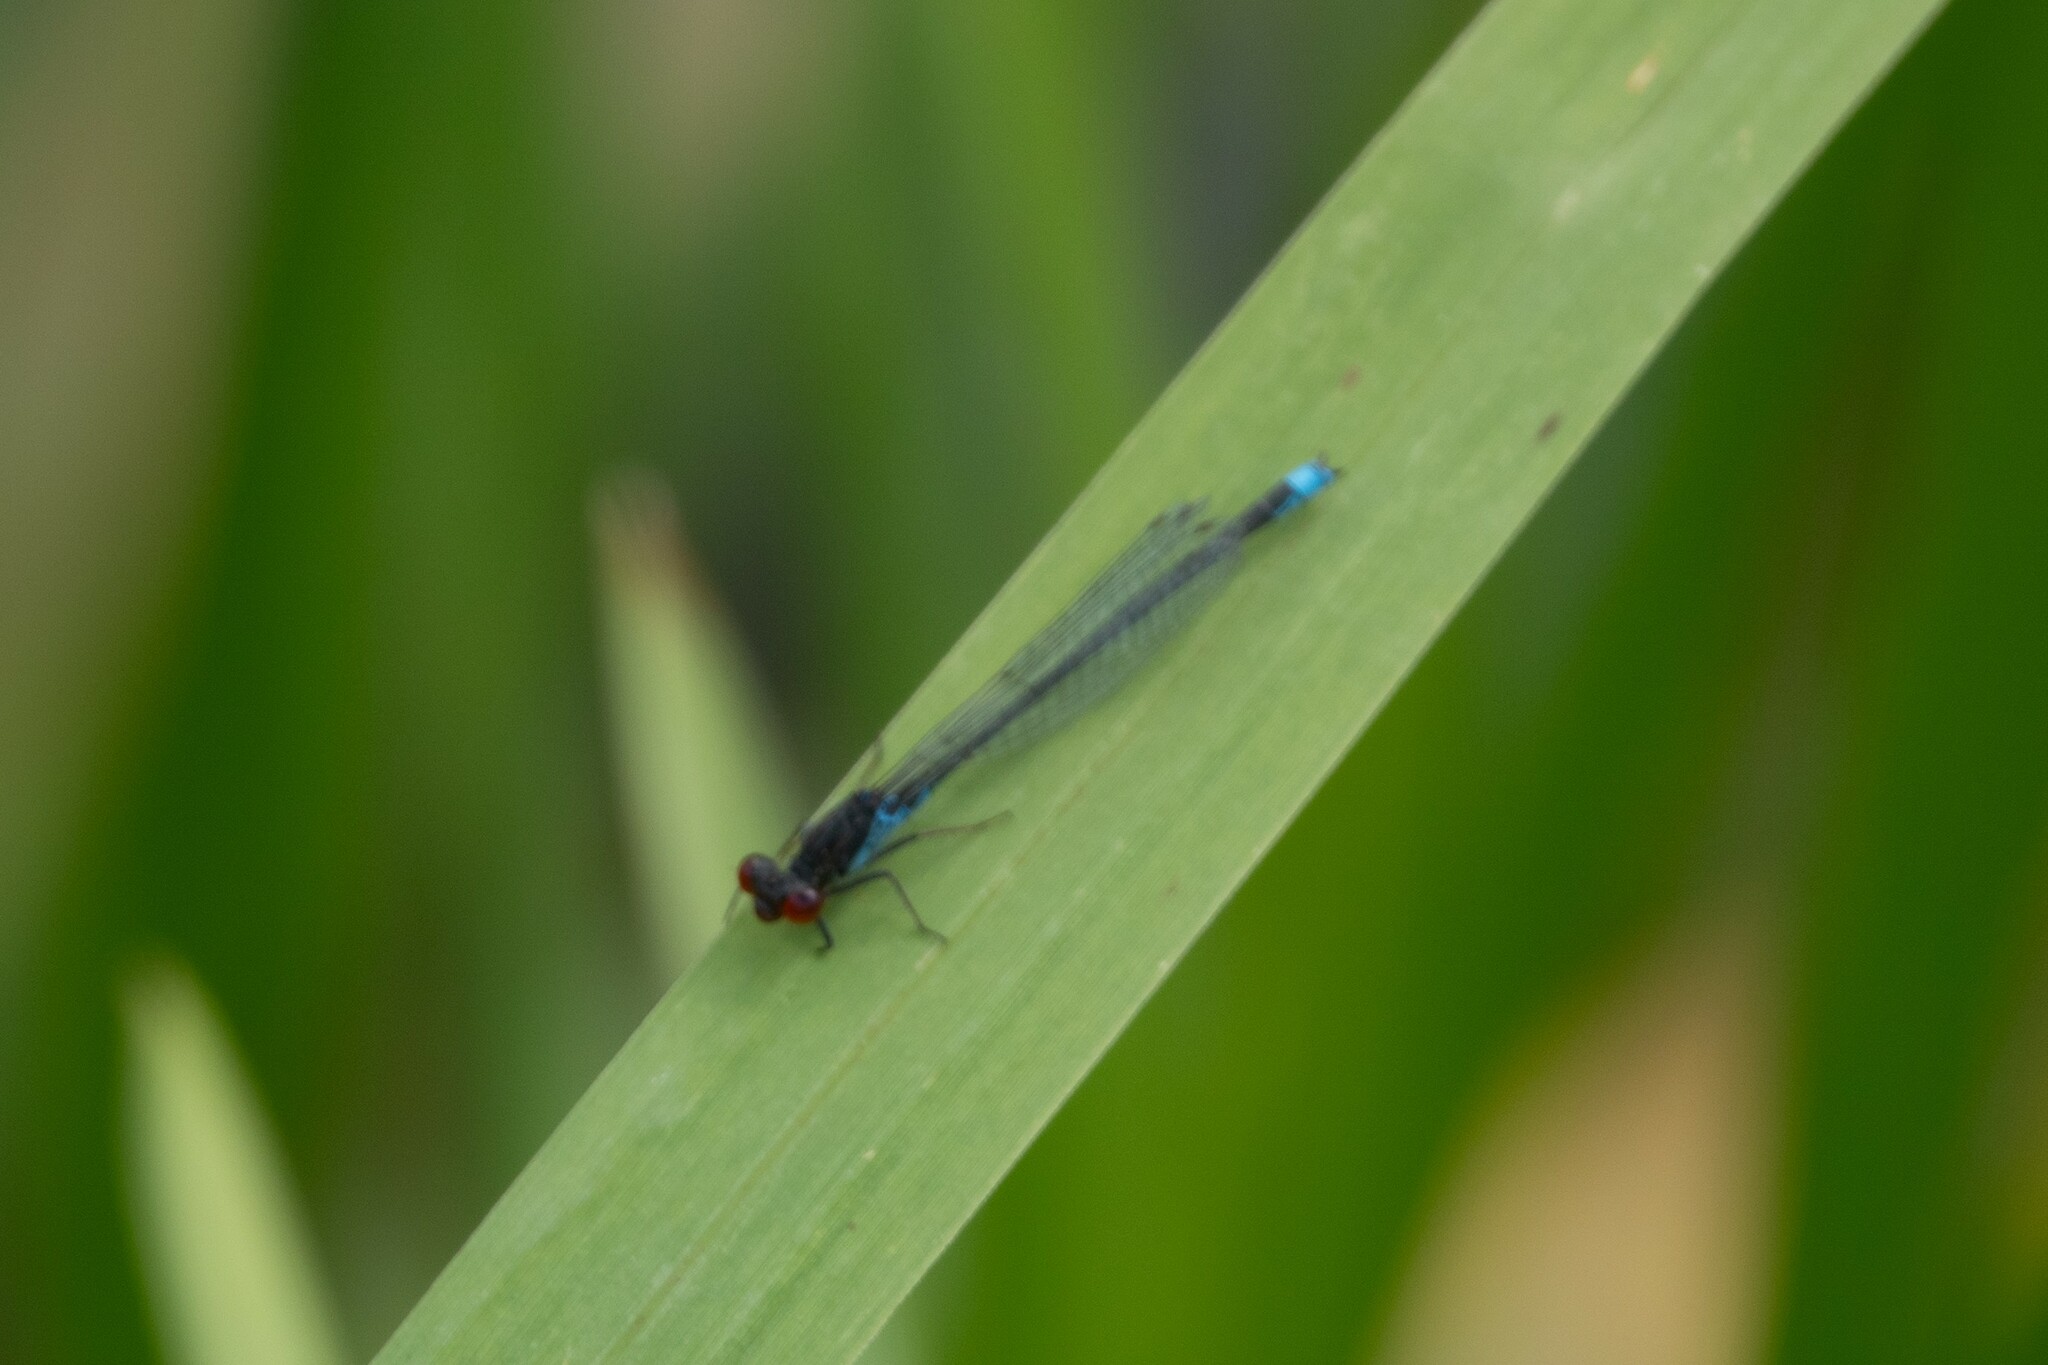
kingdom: Animalia
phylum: Arthropoda
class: Insecta
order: Odonata
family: Coenagrionidae
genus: Erythromma
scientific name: Erythromma viridulum
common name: Small red-eyed damselfly
